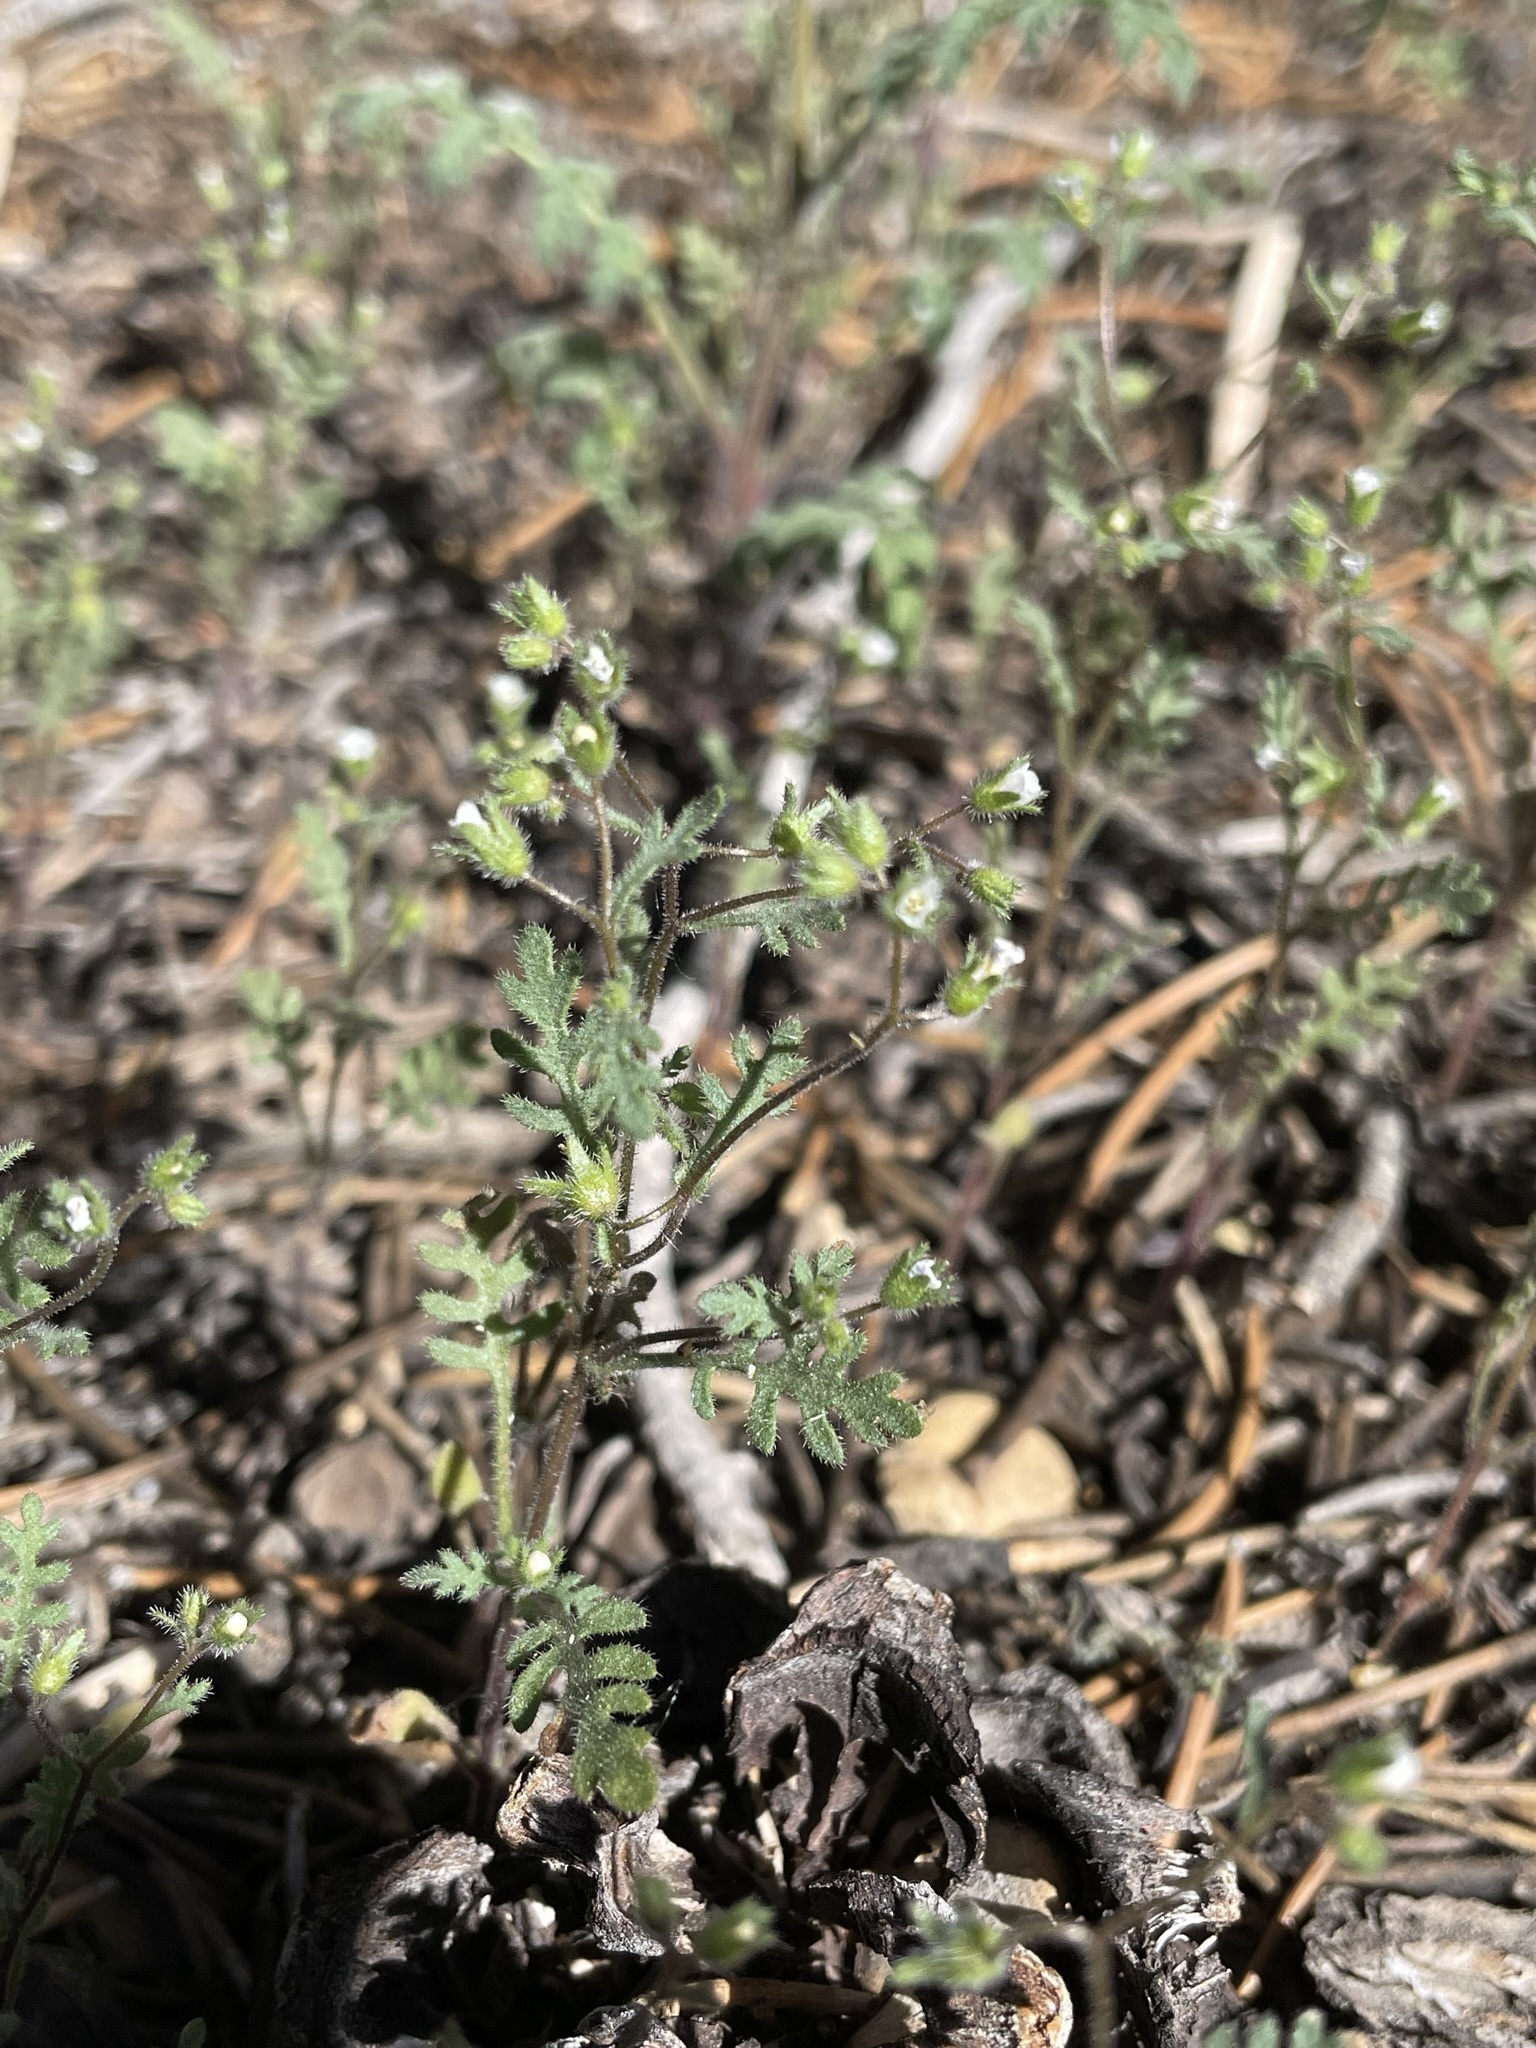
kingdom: Plantae
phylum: Tracheophyta
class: Magnoliopsida
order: Boraginales
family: Hydrophyllaceae
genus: Eucrypta
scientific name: Eucrypta micrantha
